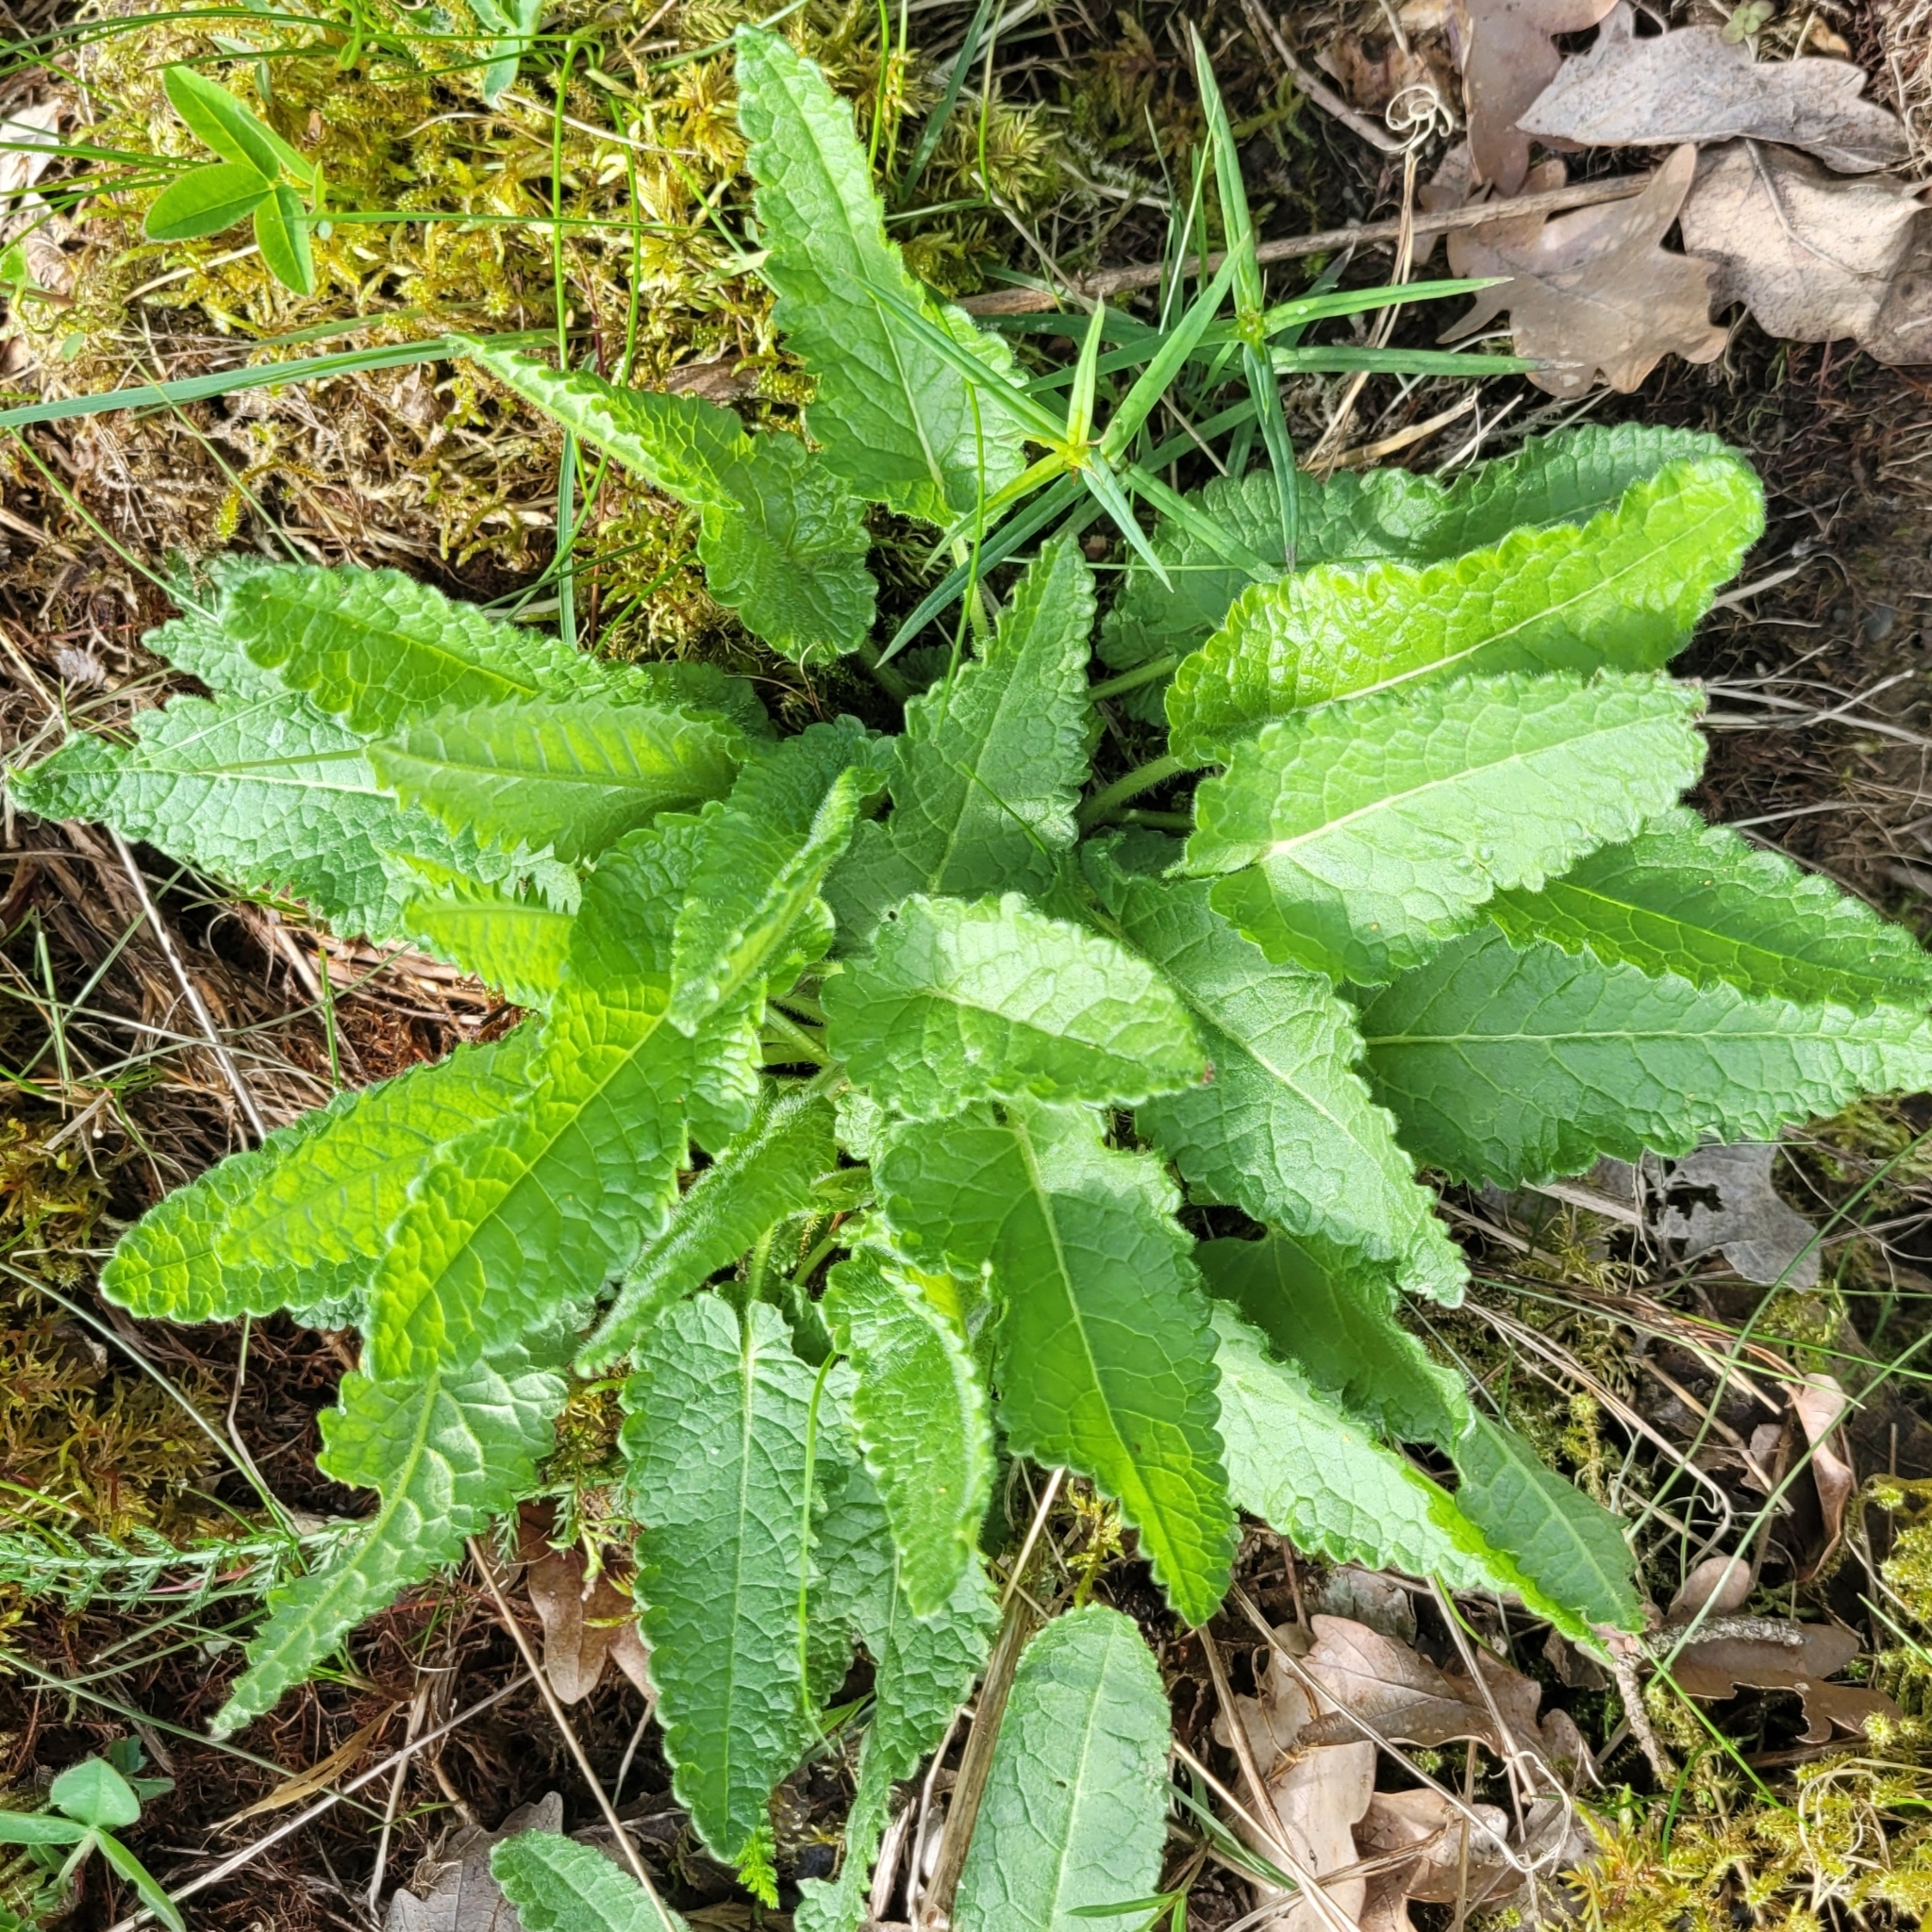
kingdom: Plantae
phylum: Tracheophyta
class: Magnoliopsida
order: Lamiales
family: Lamiaceae
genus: Betonica
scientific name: Betonica officinalis
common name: Bishop's-wort
